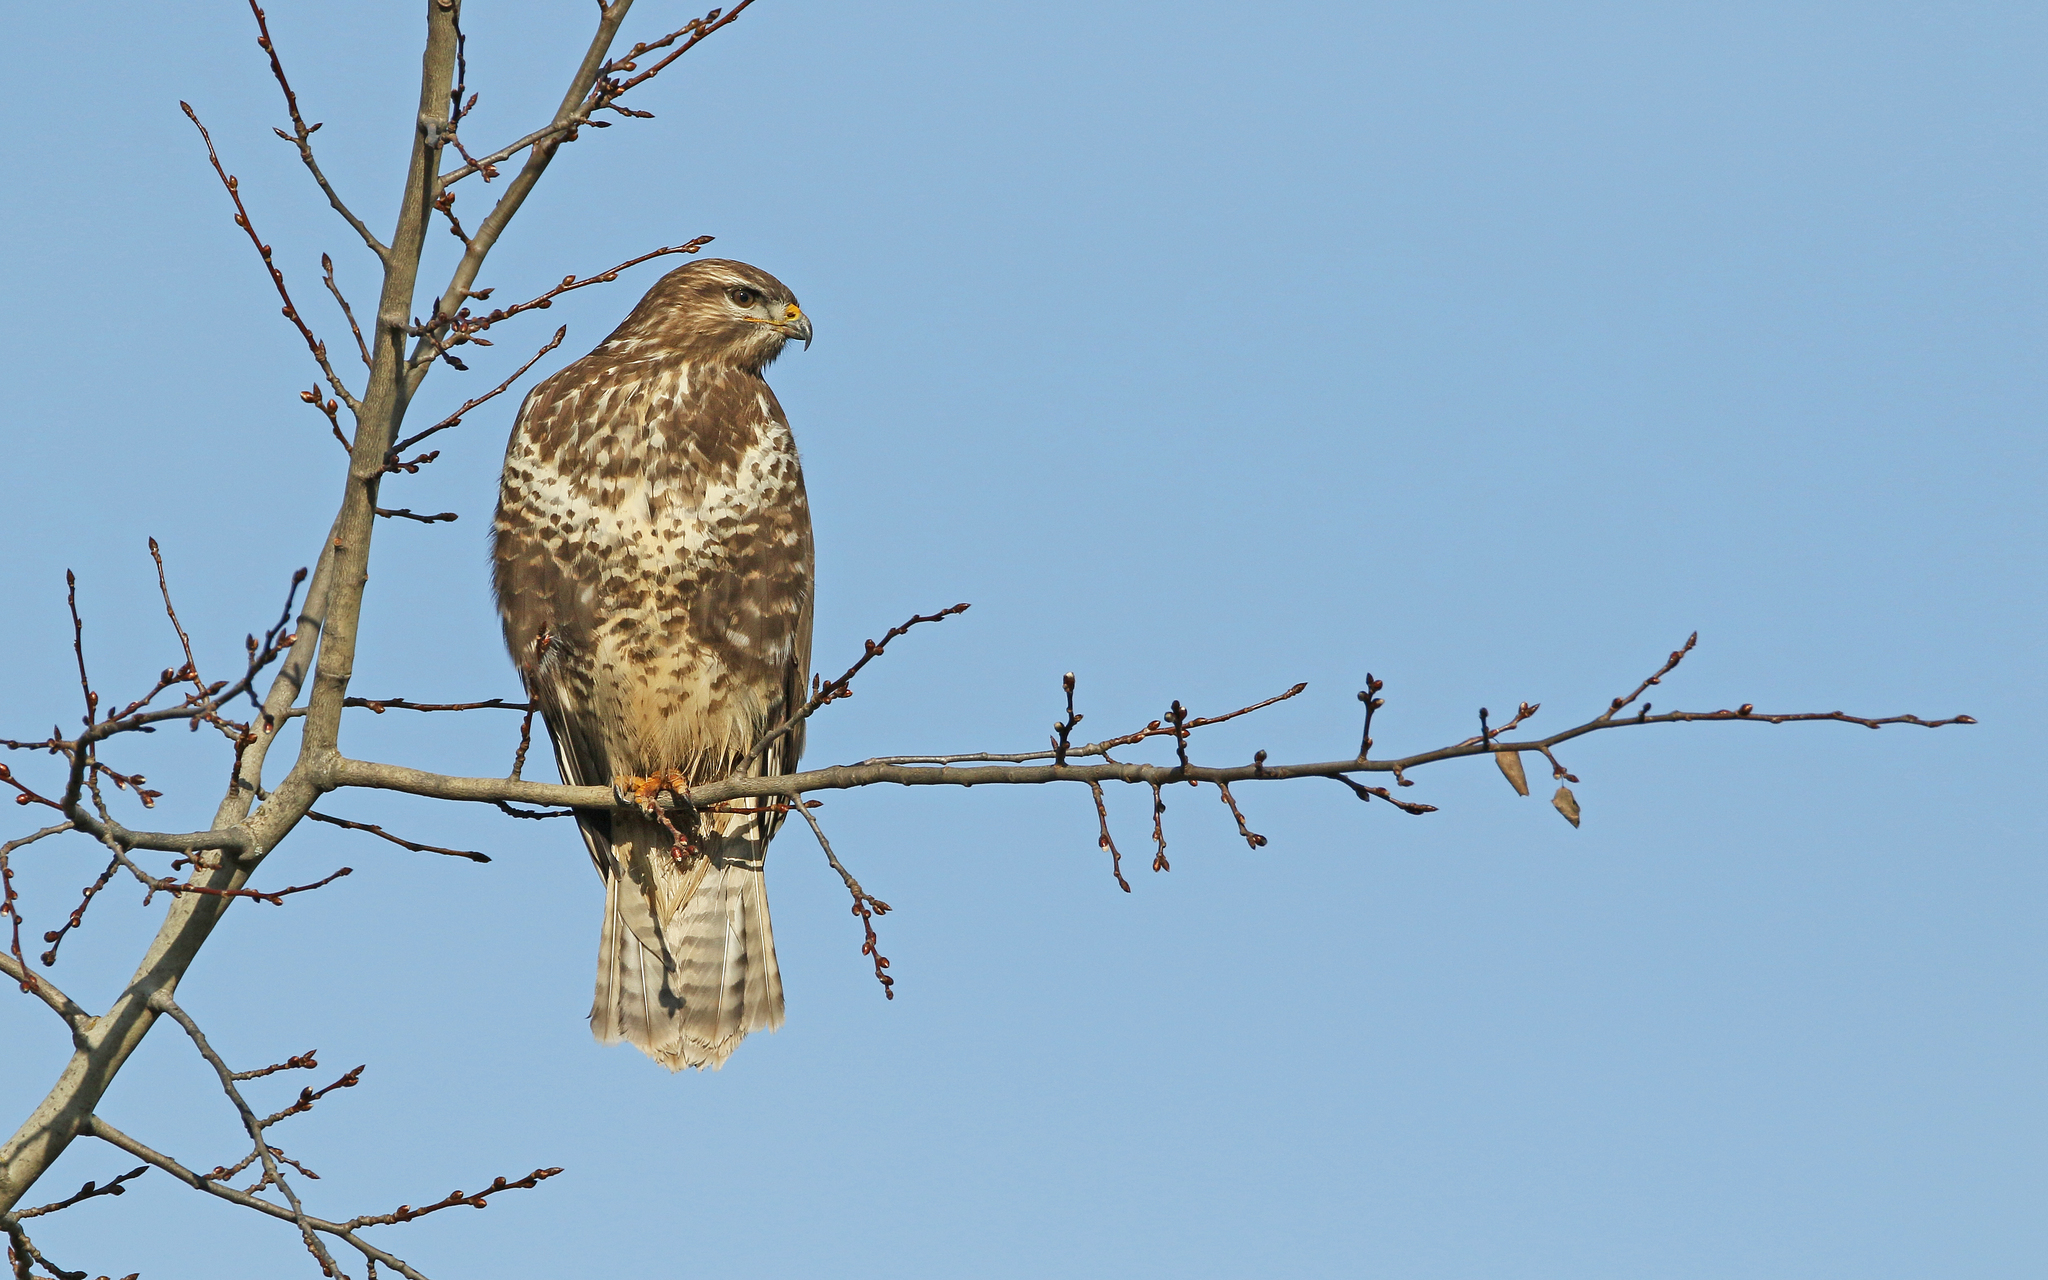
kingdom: Animalia
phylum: Chordata
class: Aves
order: Accipitriformes
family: Accipitridae
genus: Buteo
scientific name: Buteo buteo
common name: Common buzzard
